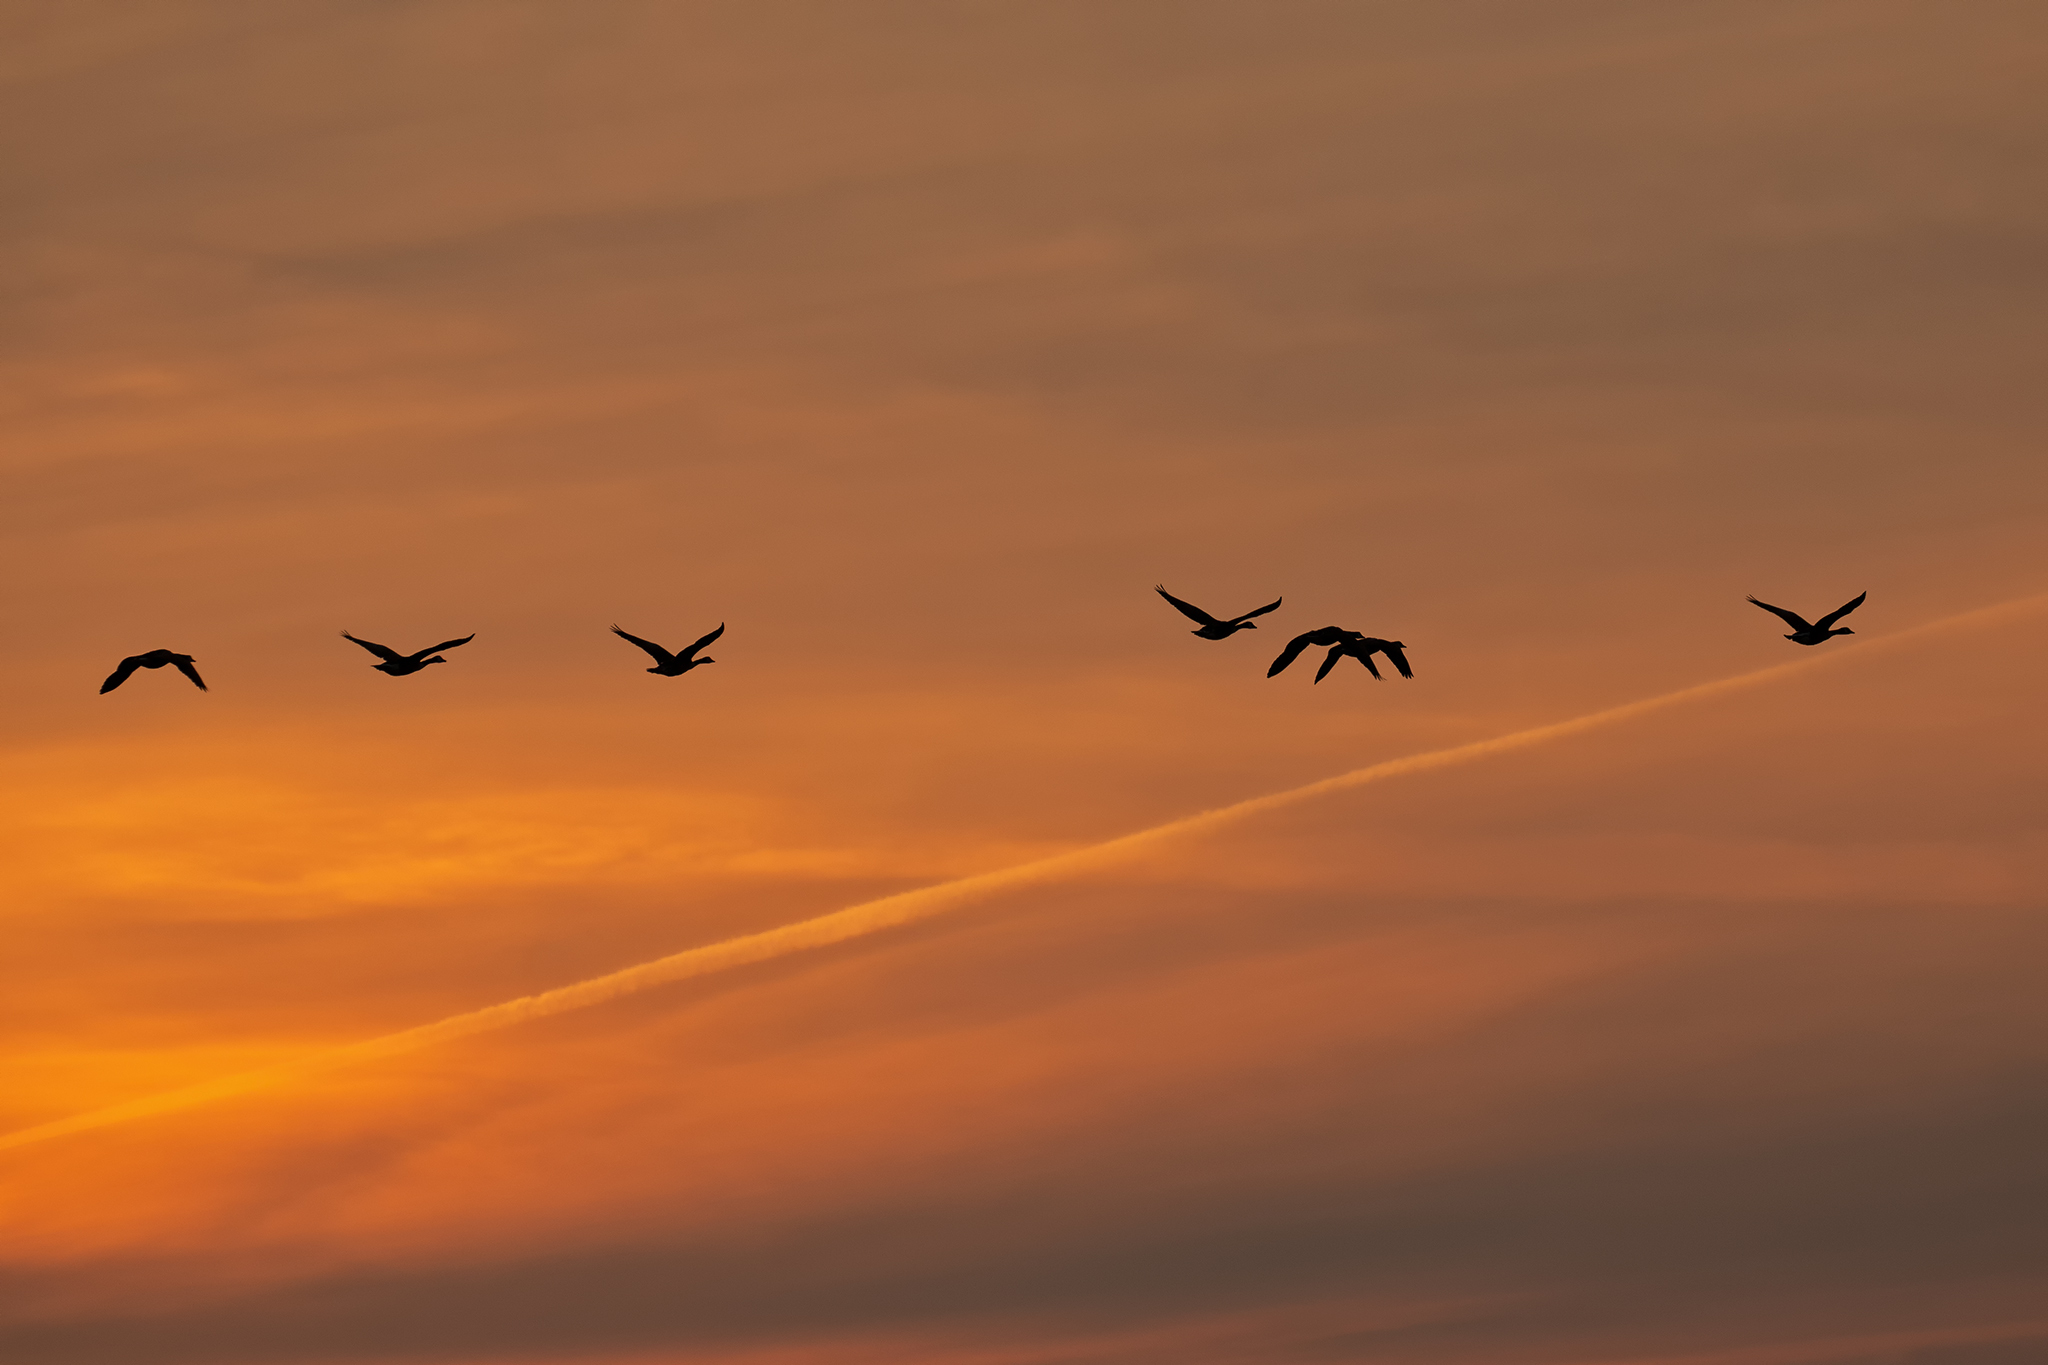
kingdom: Animalia
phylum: Chordata
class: Aves
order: Anseriformes
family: Anatidae
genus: Anser
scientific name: Anser anser
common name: Greylag goose
